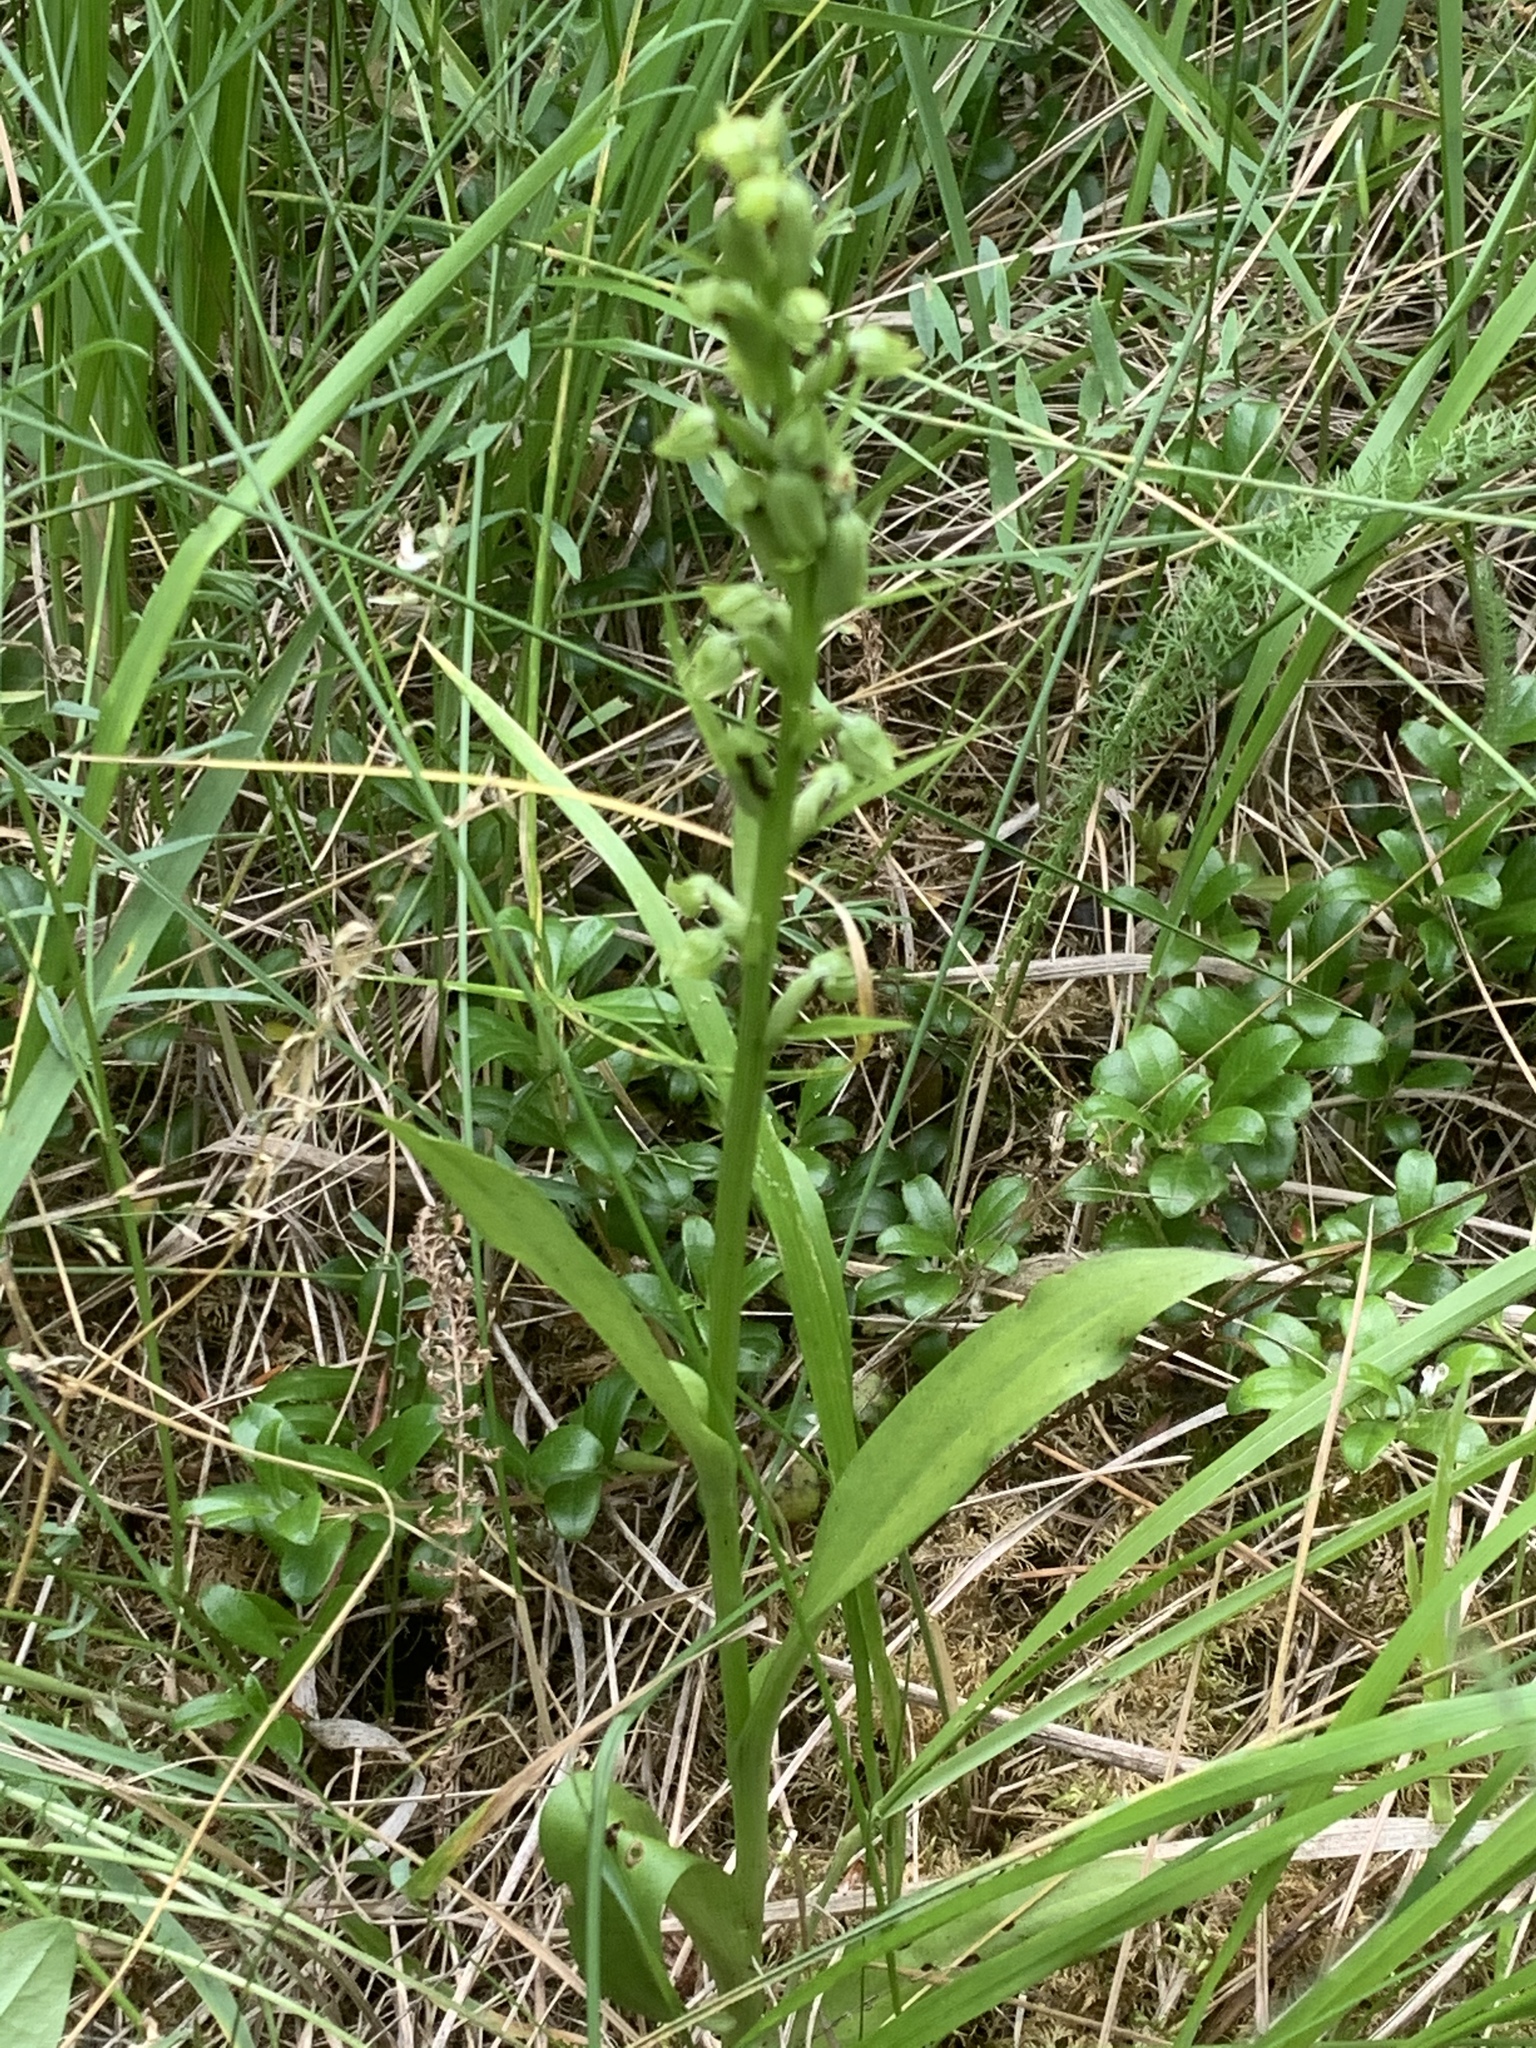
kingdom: Plantae
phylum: Tracheophyta
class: Liliopsida
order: Asparagales
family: Orchidaceae
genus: Dactylorhiza
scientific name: Dactylorhiza viridis
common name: Longbract frog orchid
